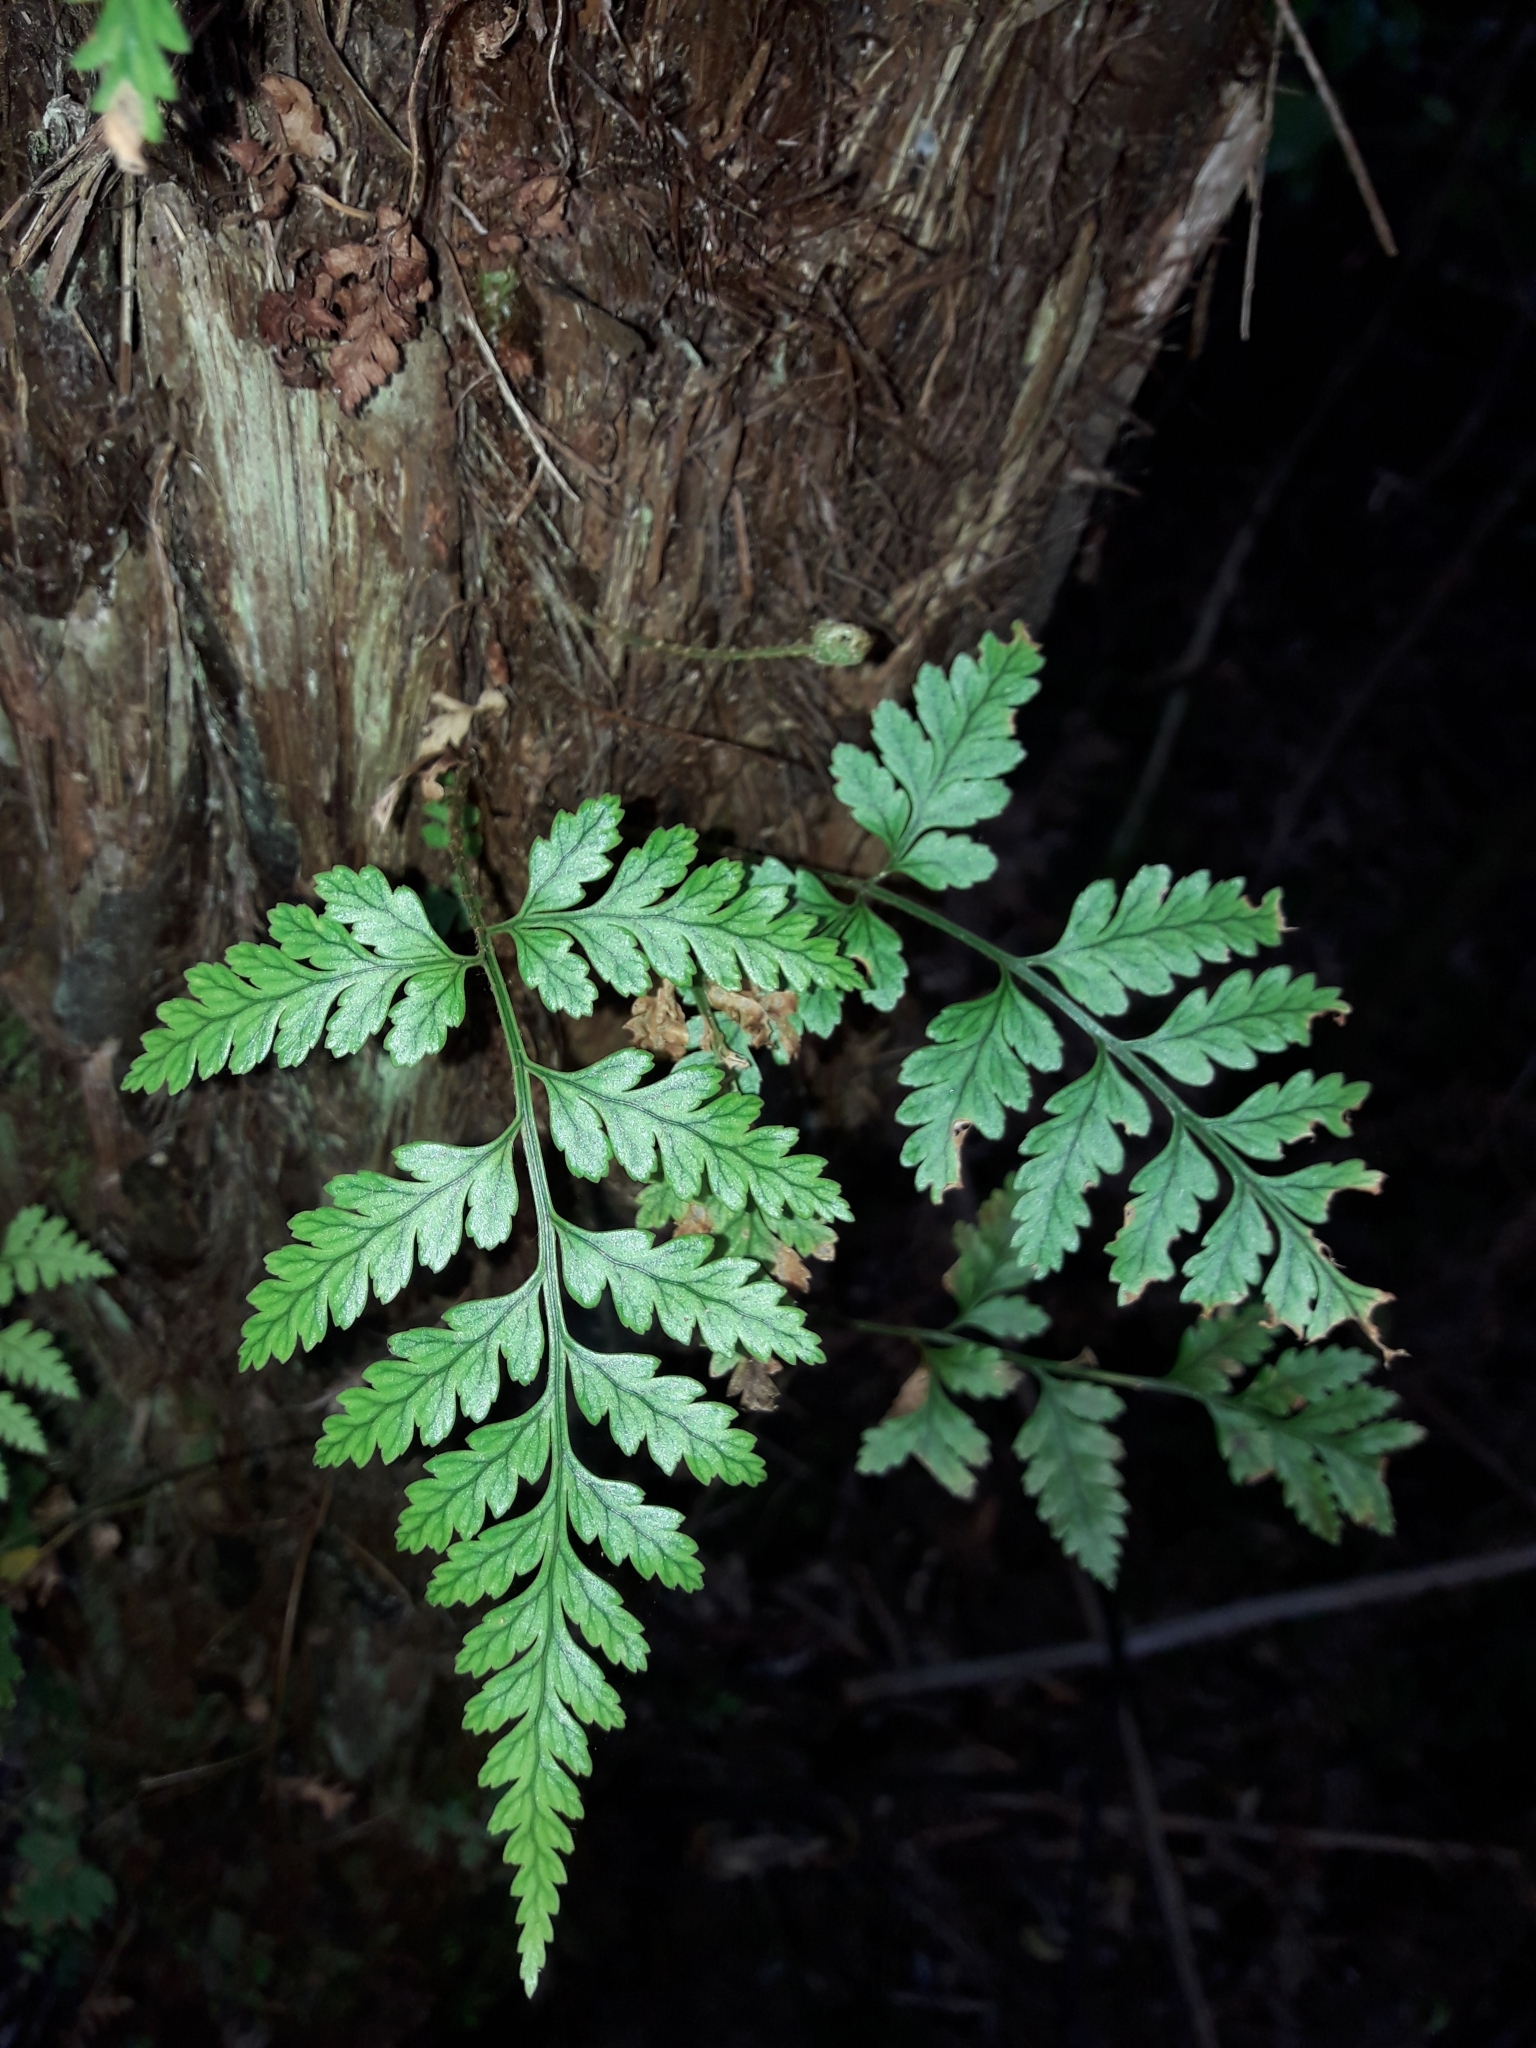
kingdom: Plantae
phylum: Tracheophyta
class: Polypodiopsida
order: Polypodiales
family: Dryopteridaceae
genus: Rumohra
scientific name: Rumohra adiantiformis
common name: Leather fern
